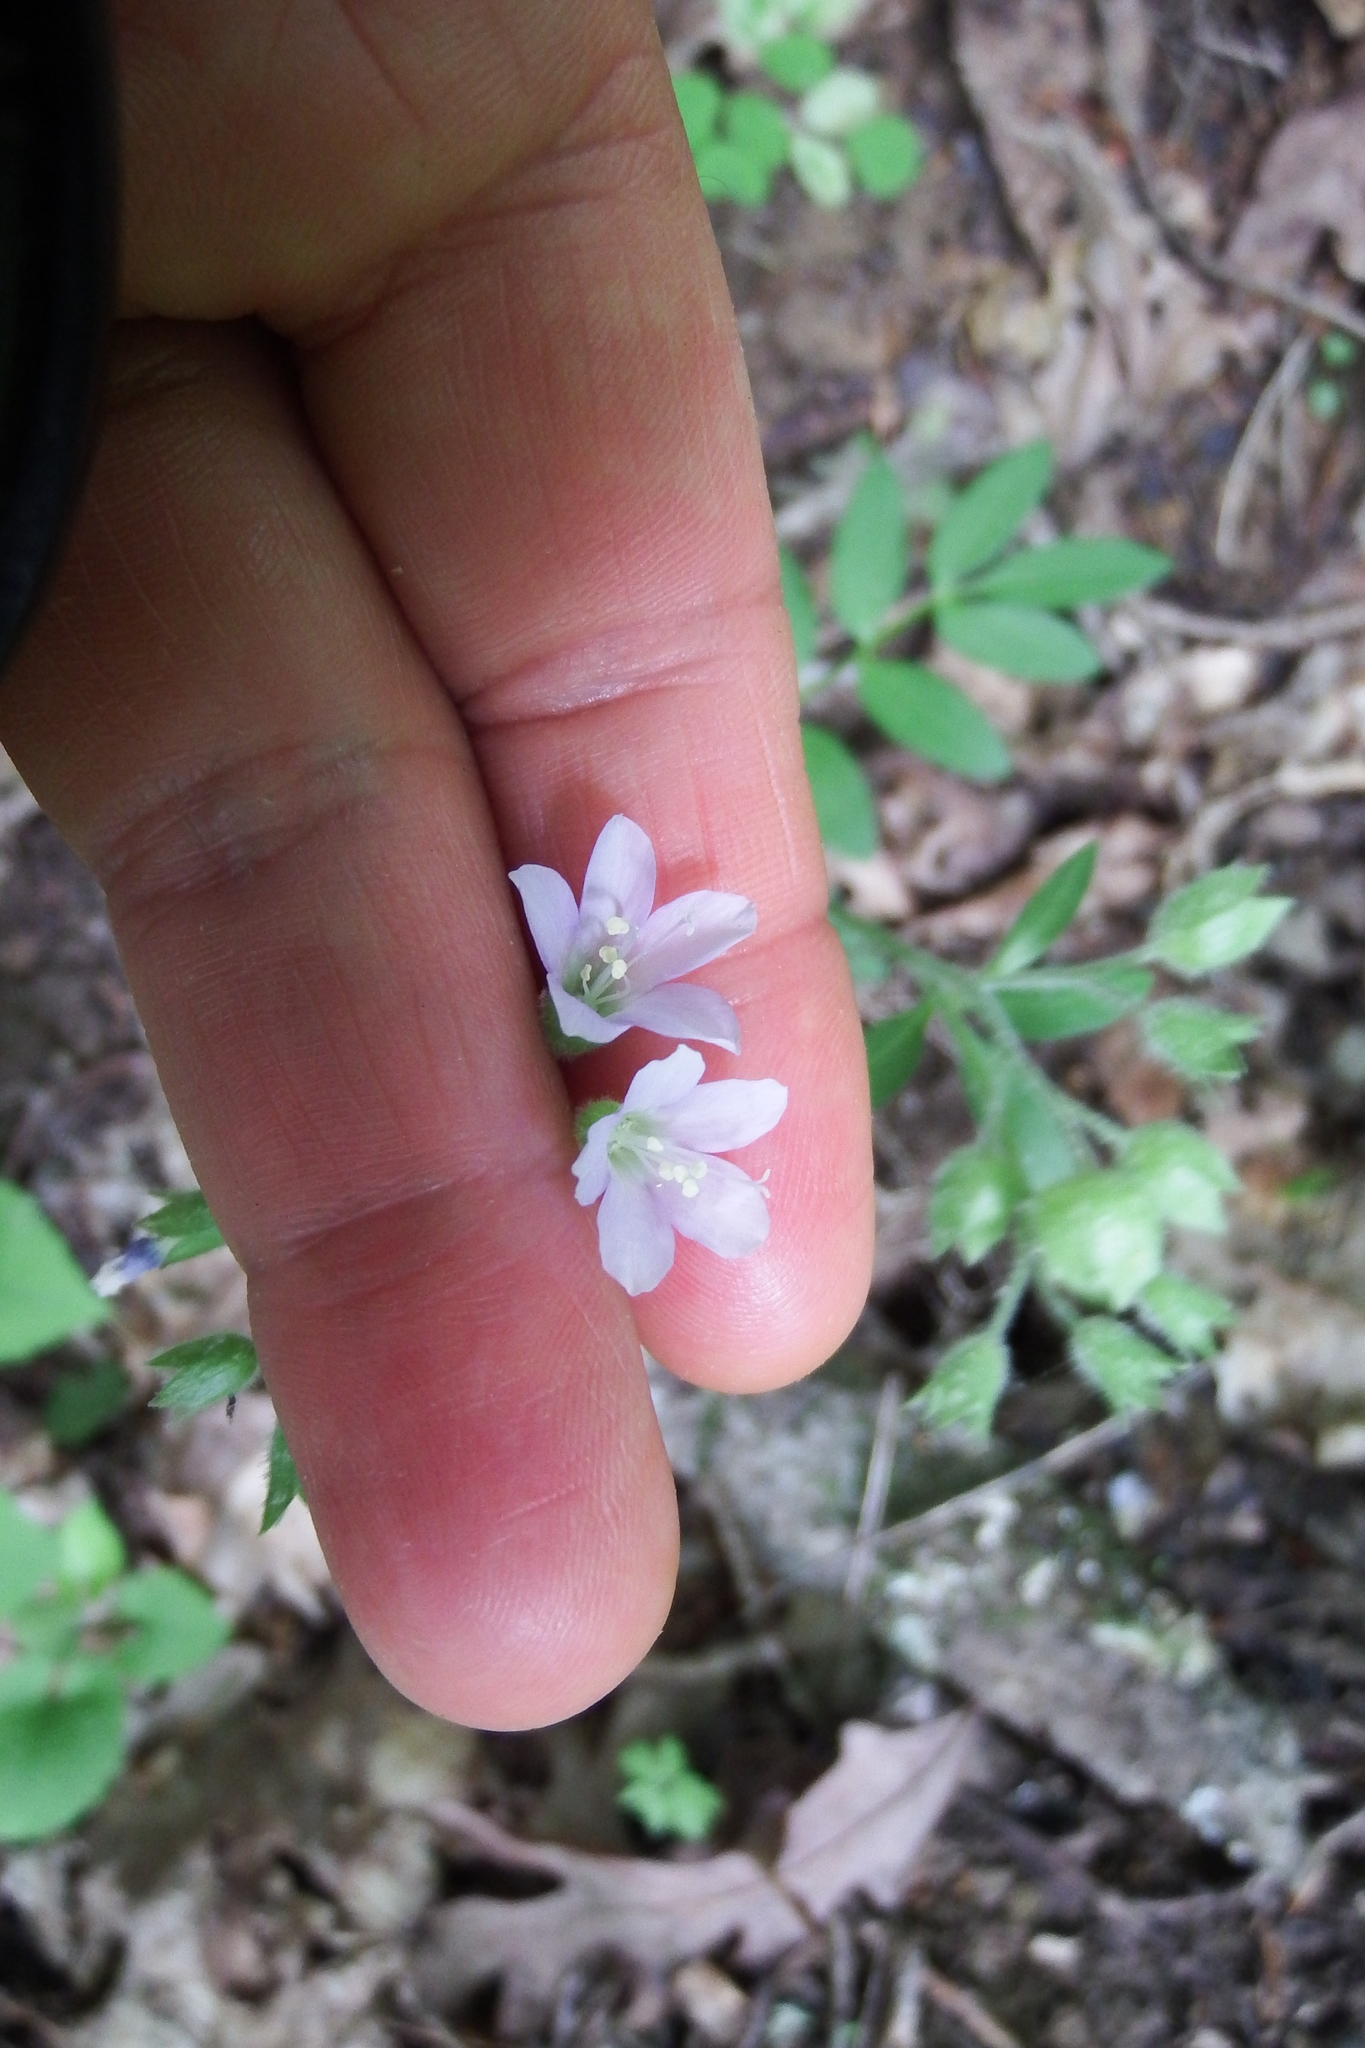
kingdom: Plantae
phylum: Tracheophyta
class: Magnoliopsida
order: Ericales
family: Polemoniaceae
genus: Polemonium
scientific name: Polemonium reptans
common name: Creeping jacob's-ladder
